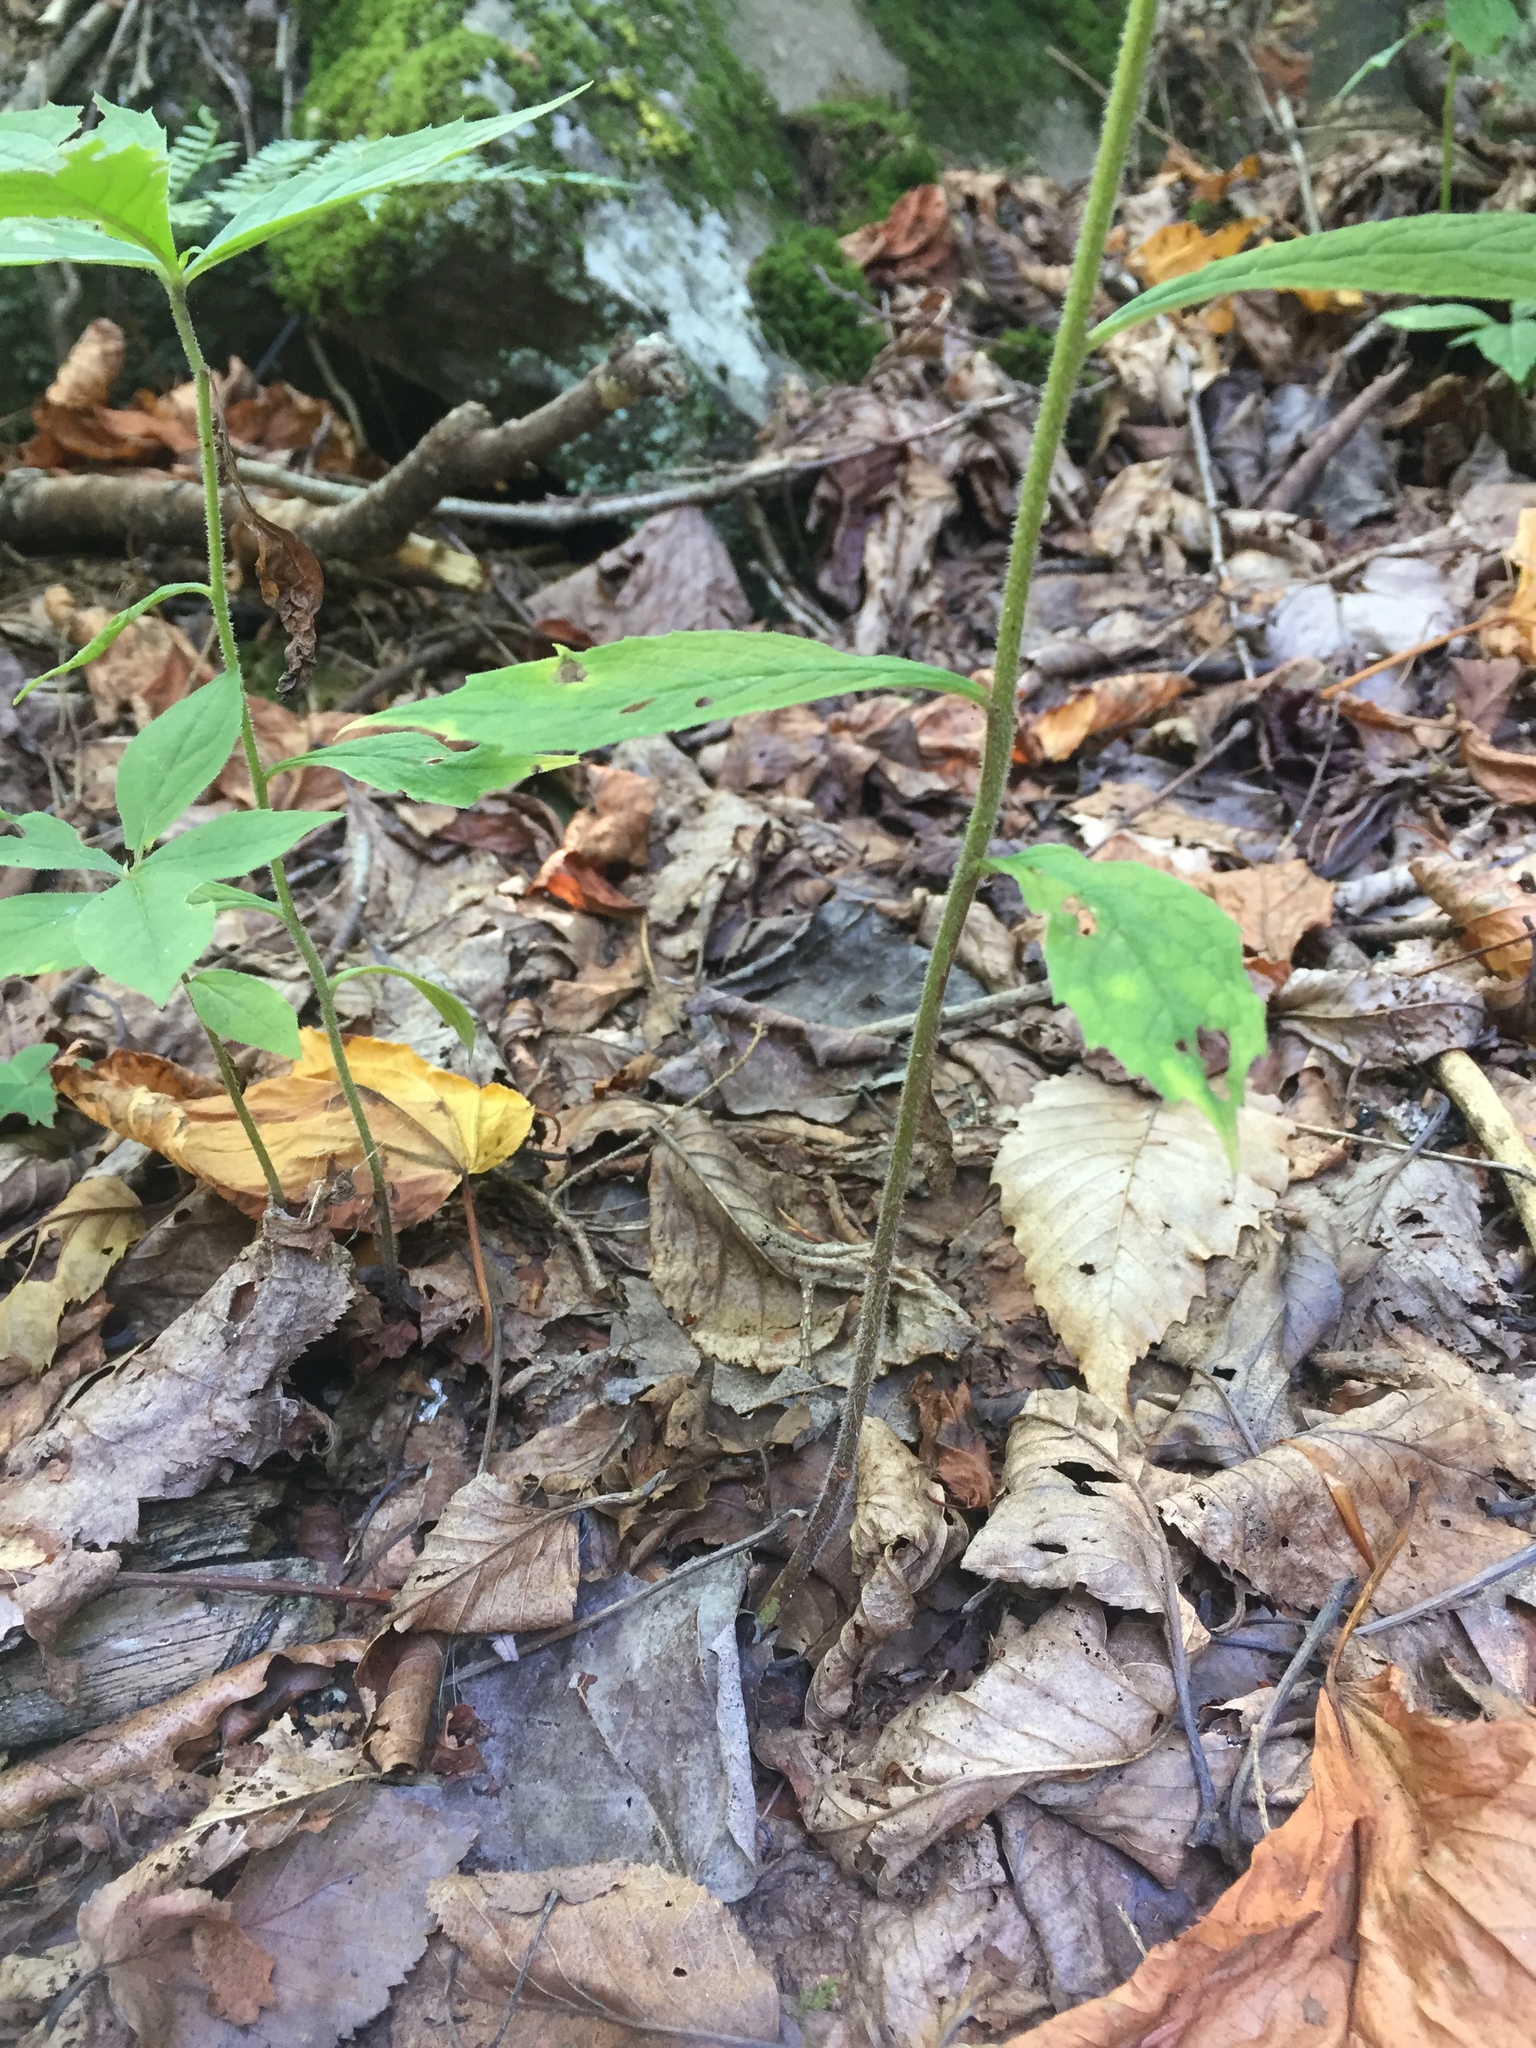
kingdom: Plantae
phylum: Tracheophyta
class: Magnoliopsida
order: Asterales
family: Asteraceae
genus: Oclemena
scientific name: Oclemena acuminata
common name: Mountain aster
